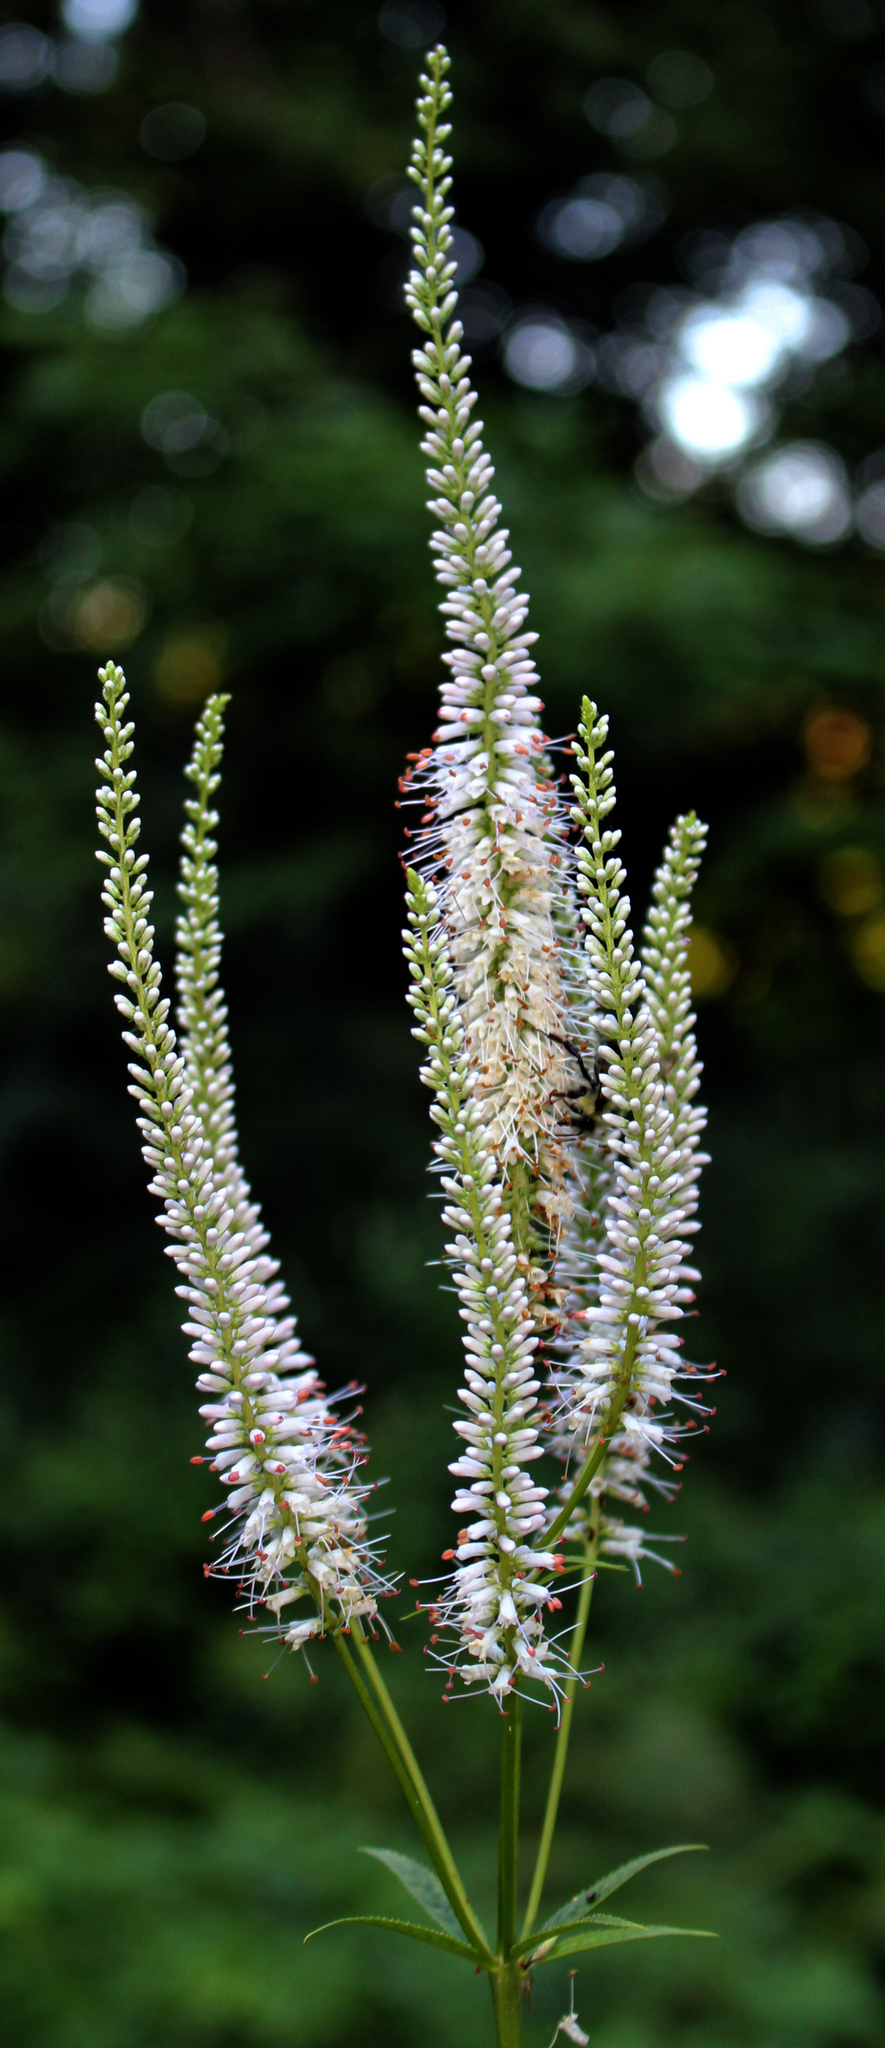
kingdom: Plantae
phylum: Tracheophyta
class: Magnoliopsida
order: Lamiales
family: Plantaginaceae
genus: Veronicastrum
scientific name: Veronicastrum virginicum
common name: Blackroot
